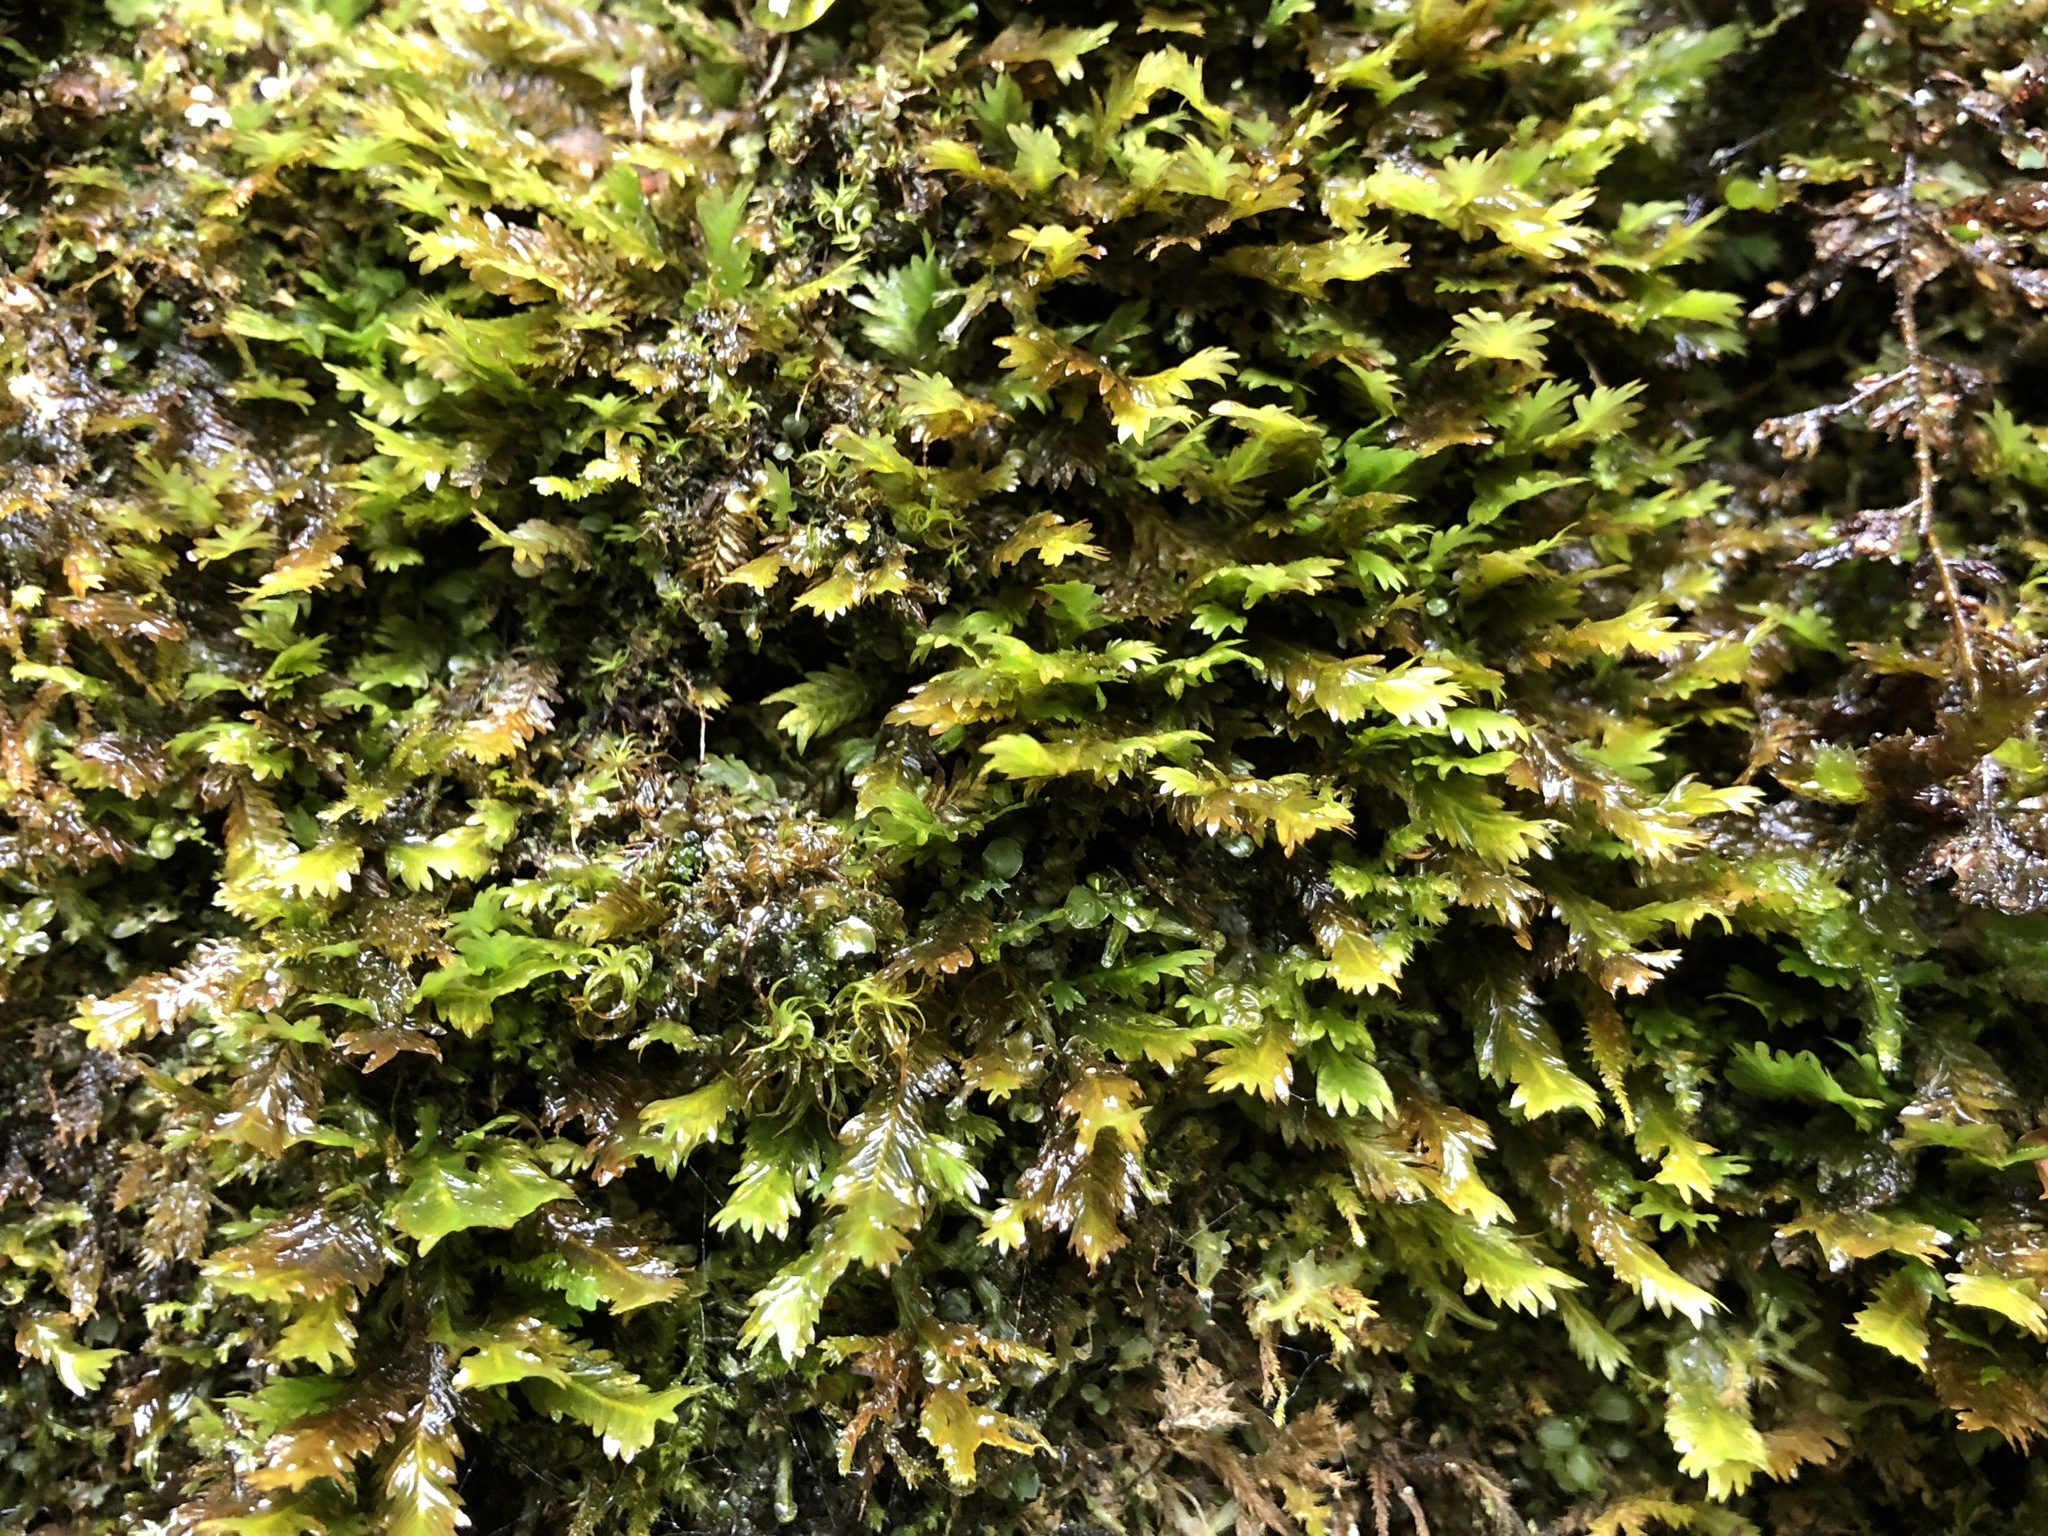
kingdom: Plantae
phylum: Bryophyta
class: Bryopsida
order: Dicranales
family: Fissidentaceae
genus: Fissidens
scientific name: Fissidens dubius
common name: Rock pocket moss
